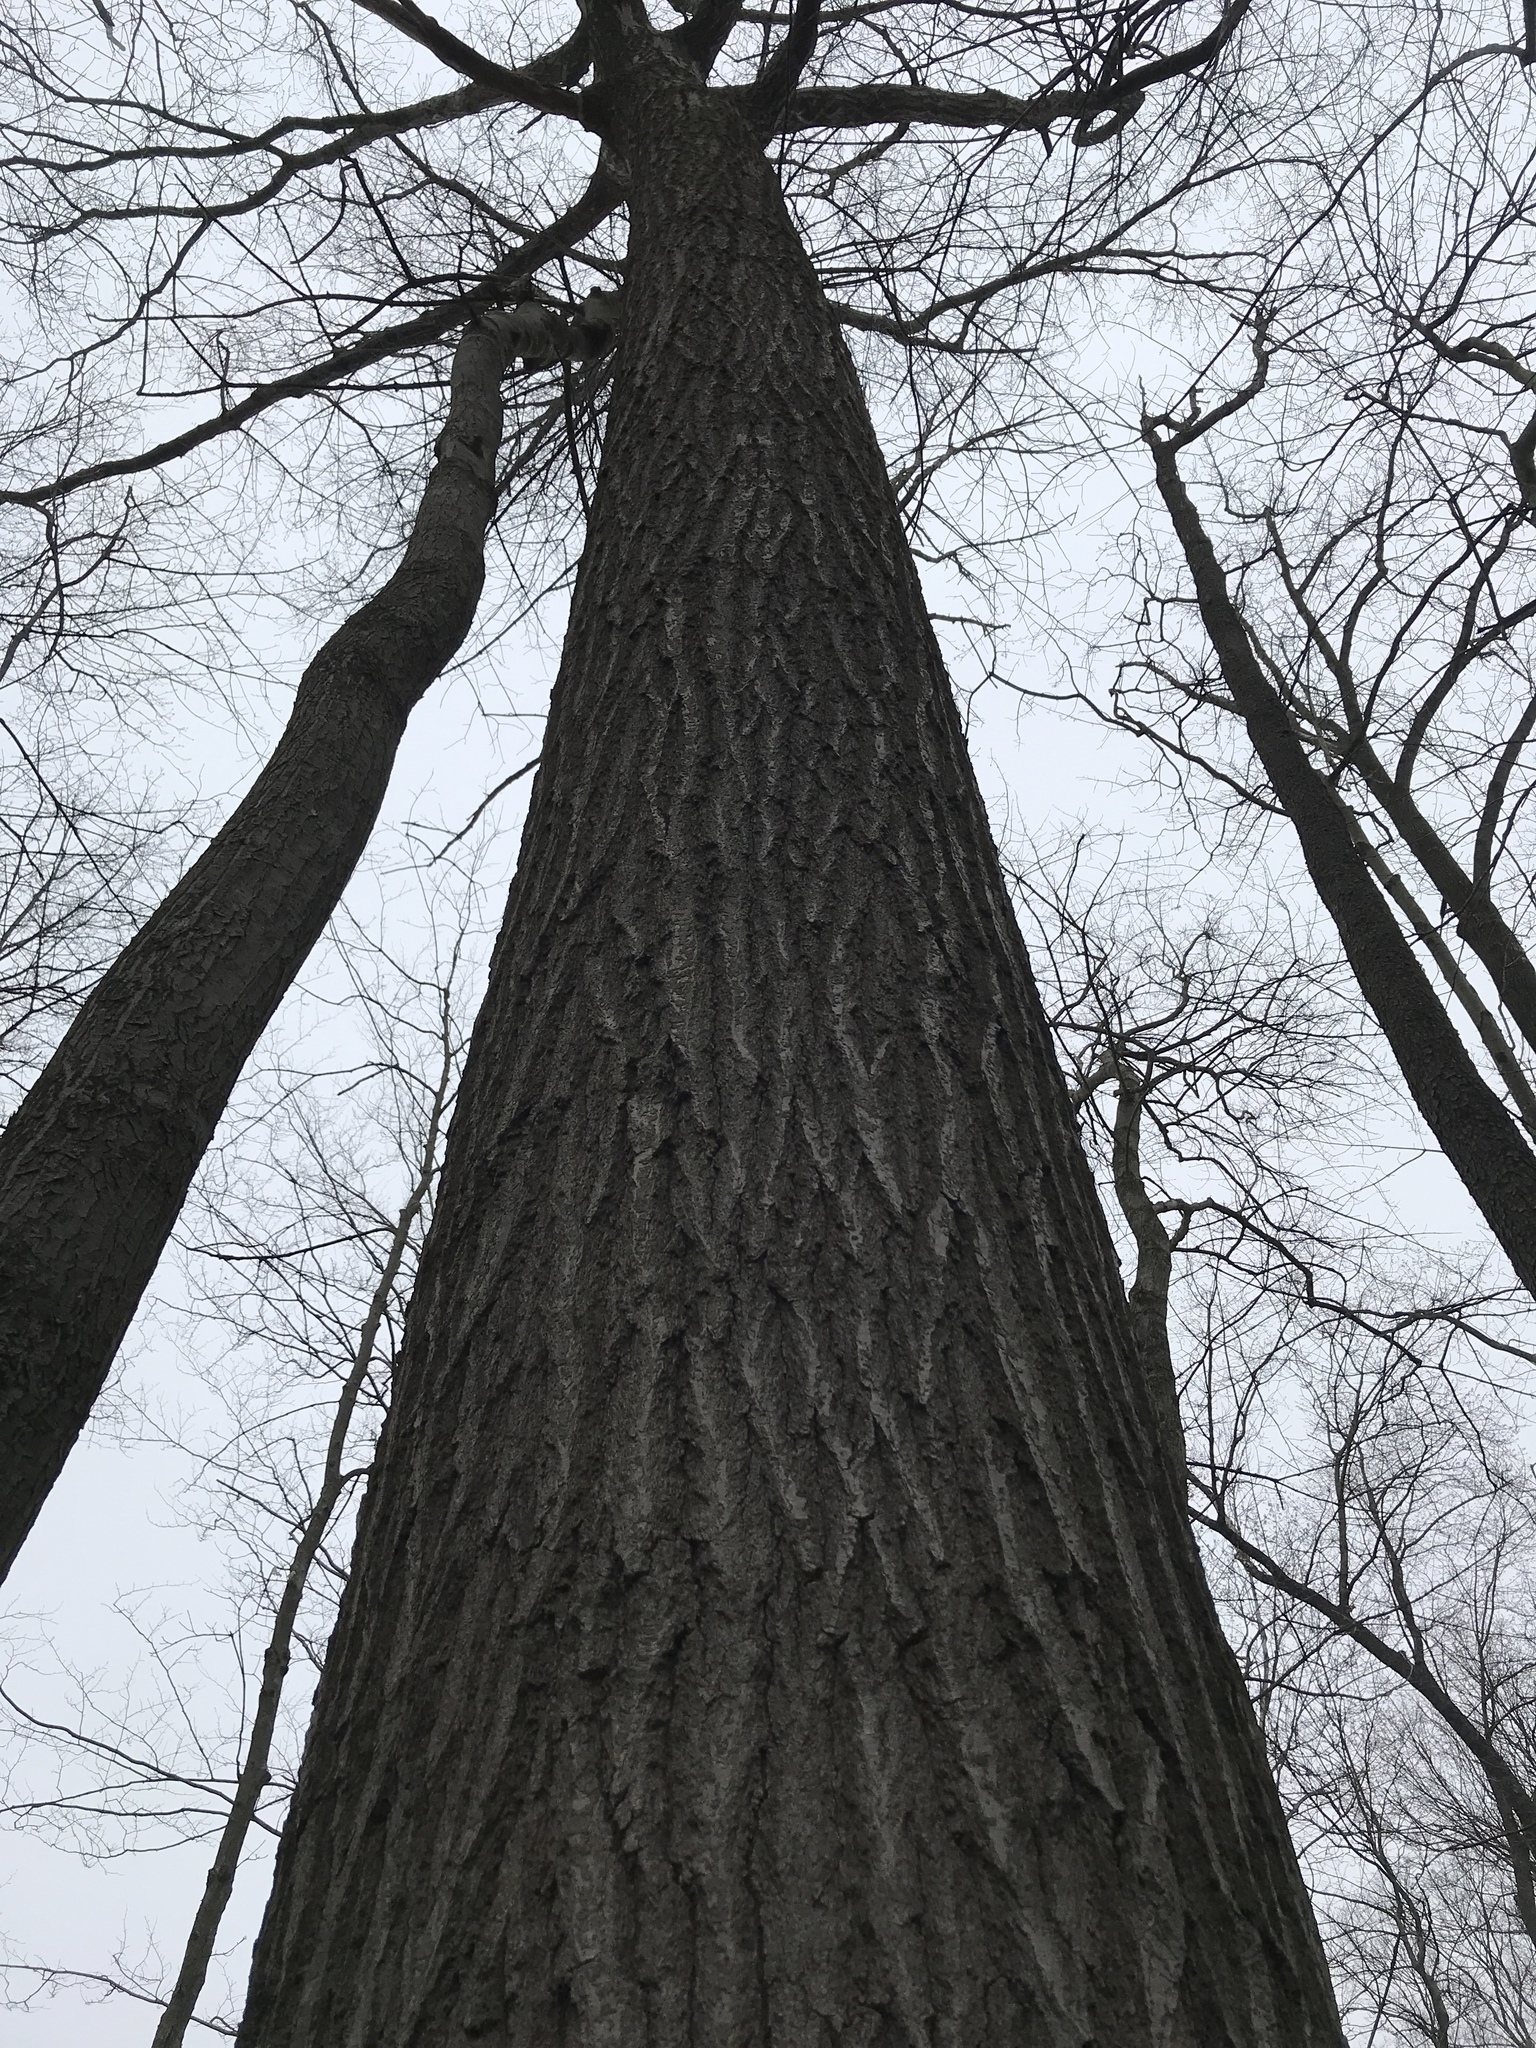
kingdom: Plantae
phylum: Tracheophyta
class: Magnoliopsida
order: Fagales
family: Fagaceae
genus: Quercus
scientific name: Quercus rubra
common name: Red oak
